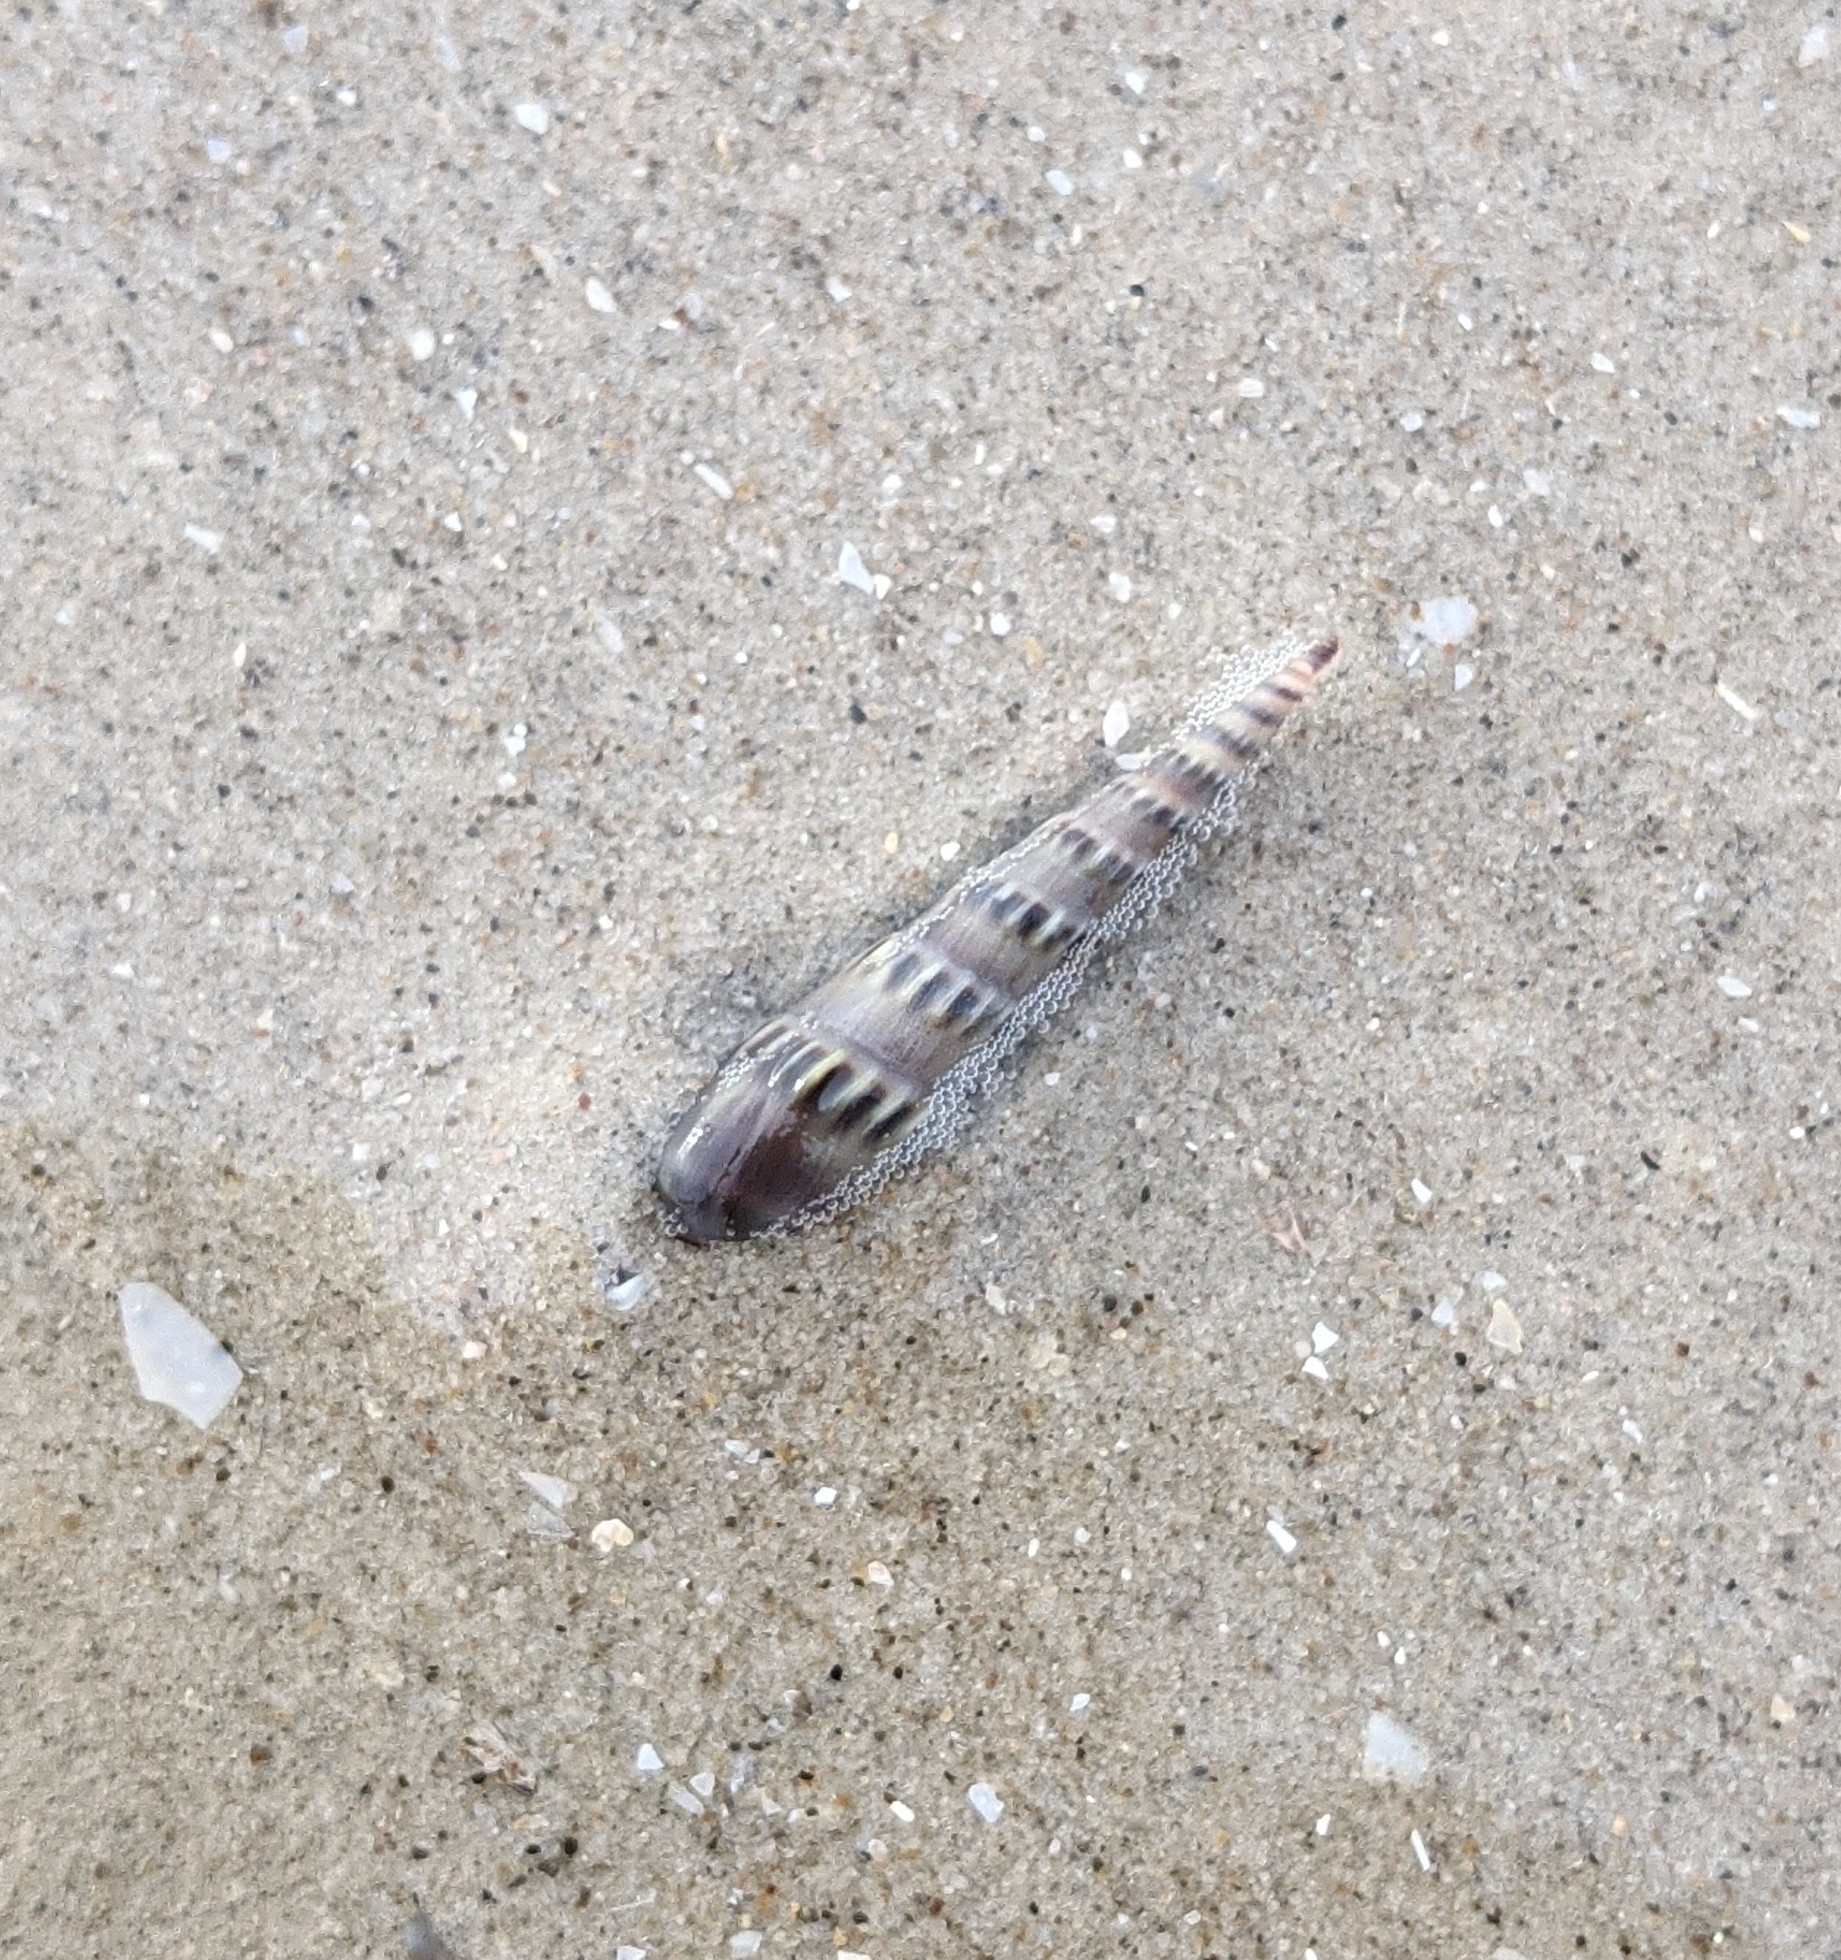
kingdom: Animalia
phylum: Mollusca
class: Gastropoda
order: Neogastropoda
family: Terebridae
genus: Hastula
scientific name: Hastula salleana
